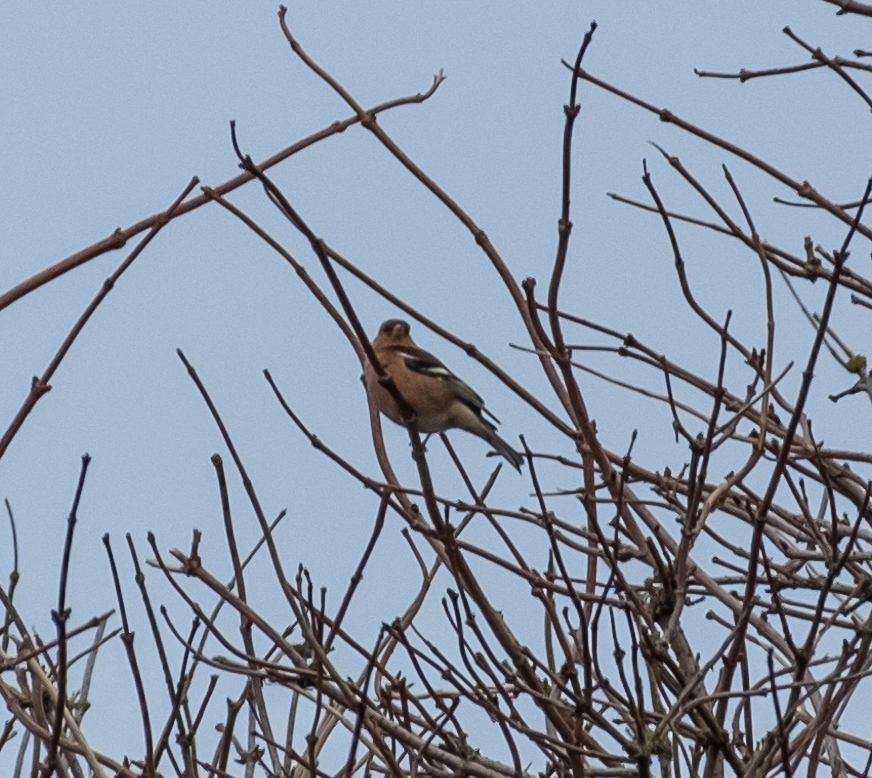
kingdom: Animalia
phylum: Chordata
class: Aves
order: Passeriformes
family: Fringillidae
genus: Fringilla
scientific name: Fringilla coelebs
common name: Common chaffinch
